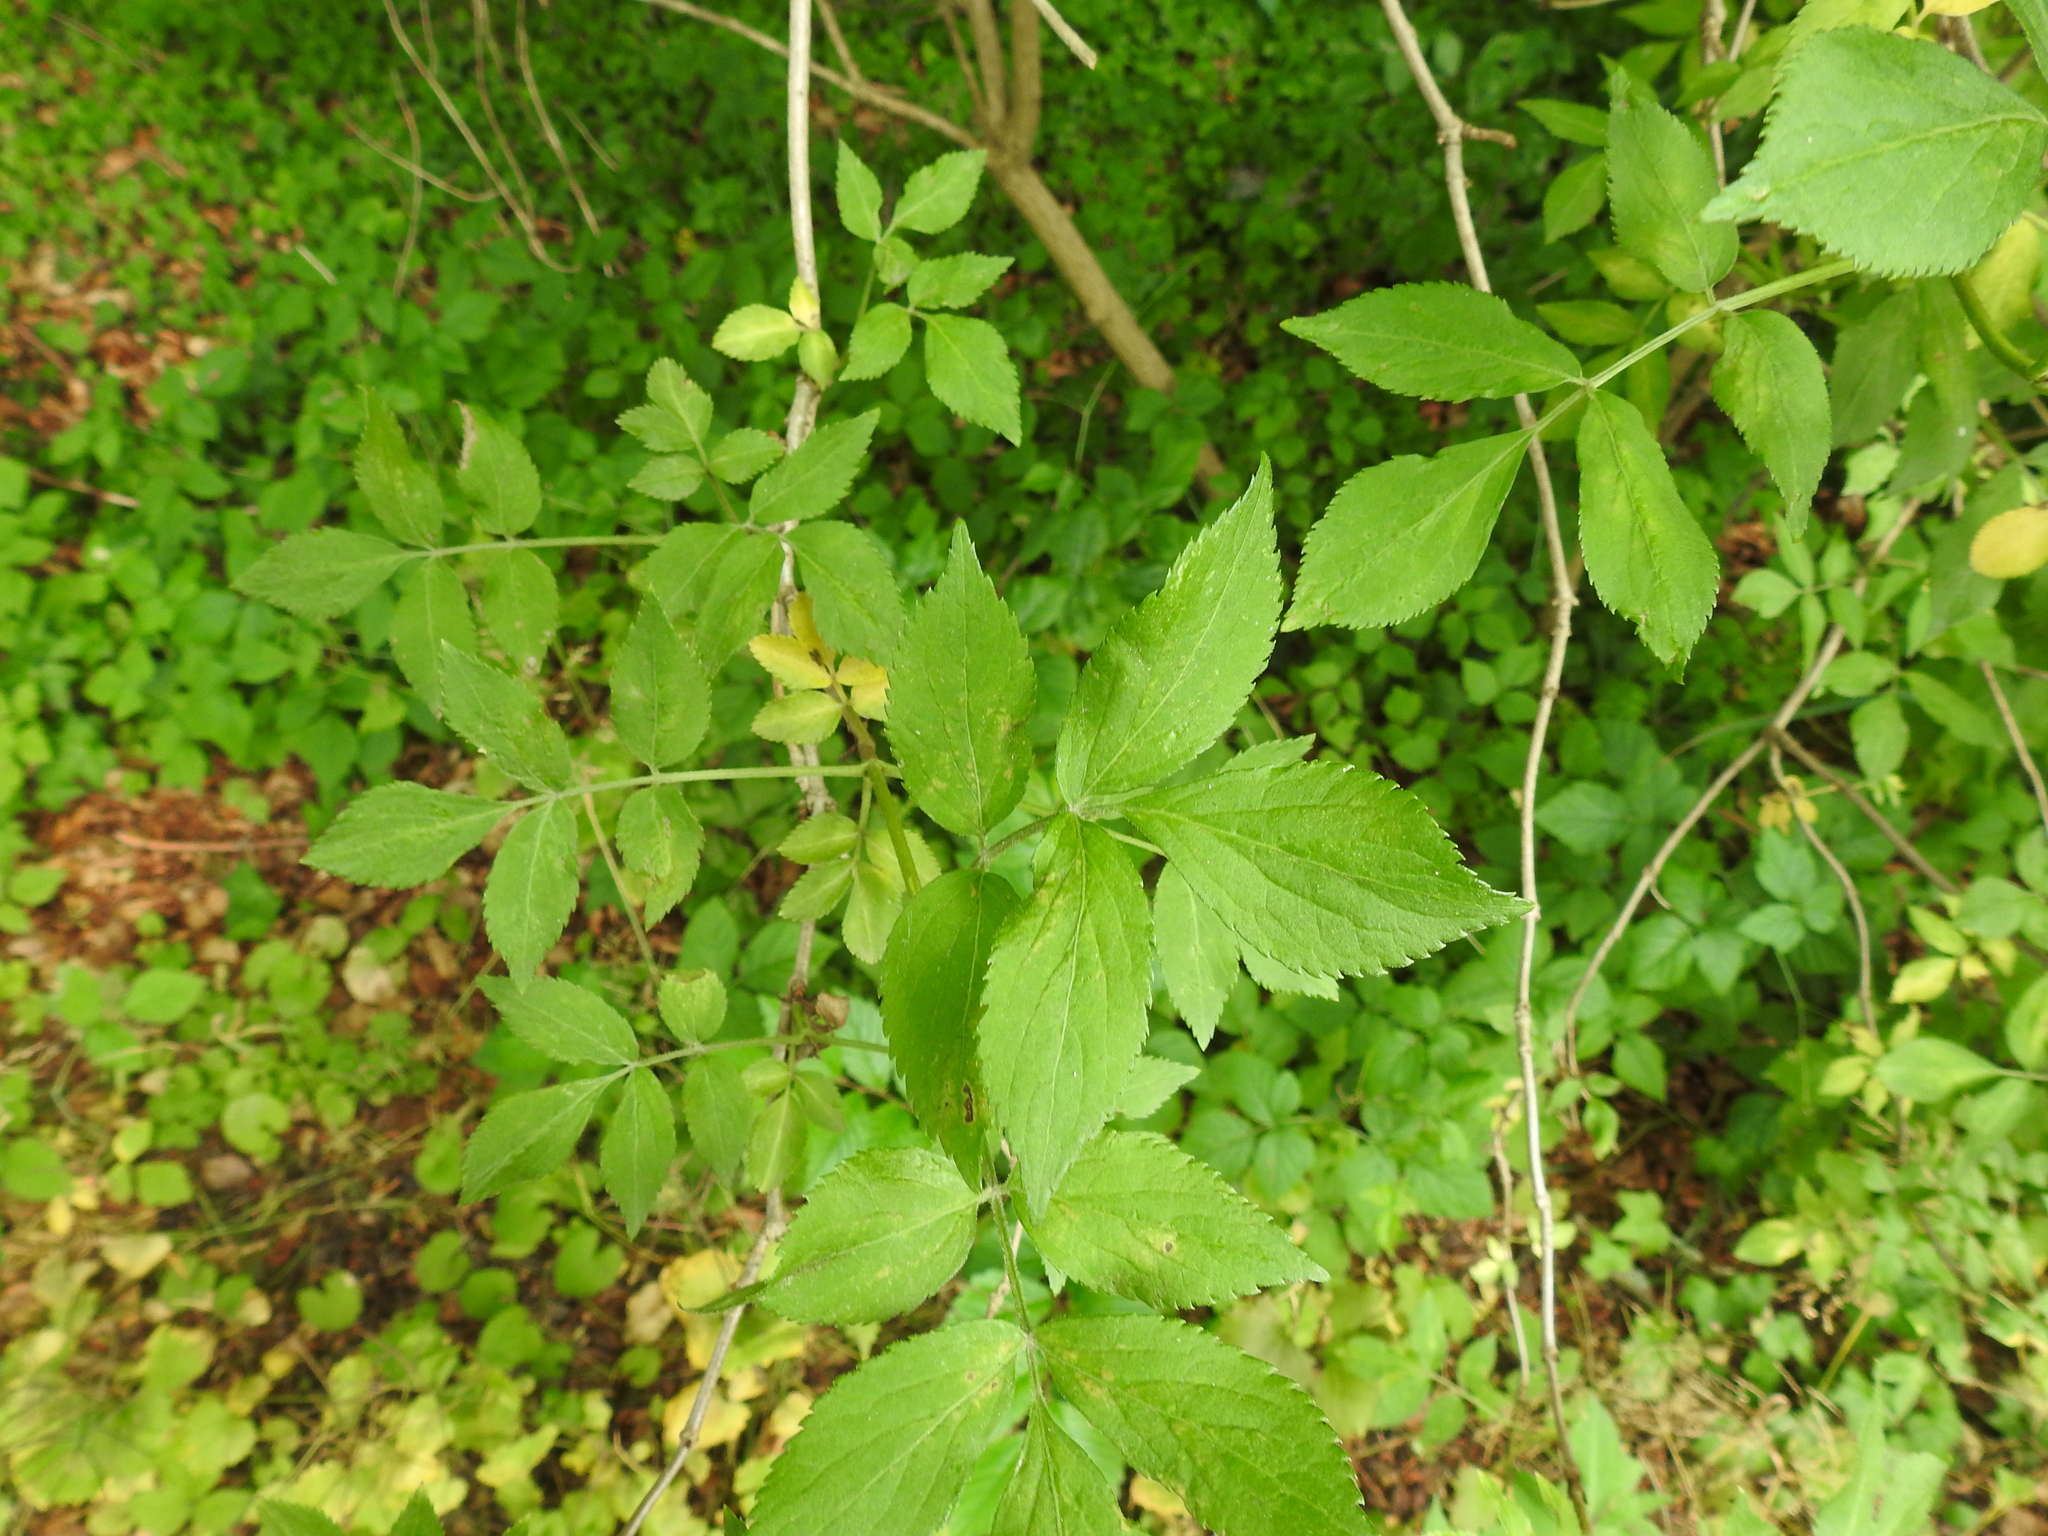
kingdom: Plantae
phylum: Tracheophyta
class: Magnoliopsida
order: Dipsacales
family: Viburnaceae
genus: Sambucus
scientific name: Sambucus nigra
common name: Elder
